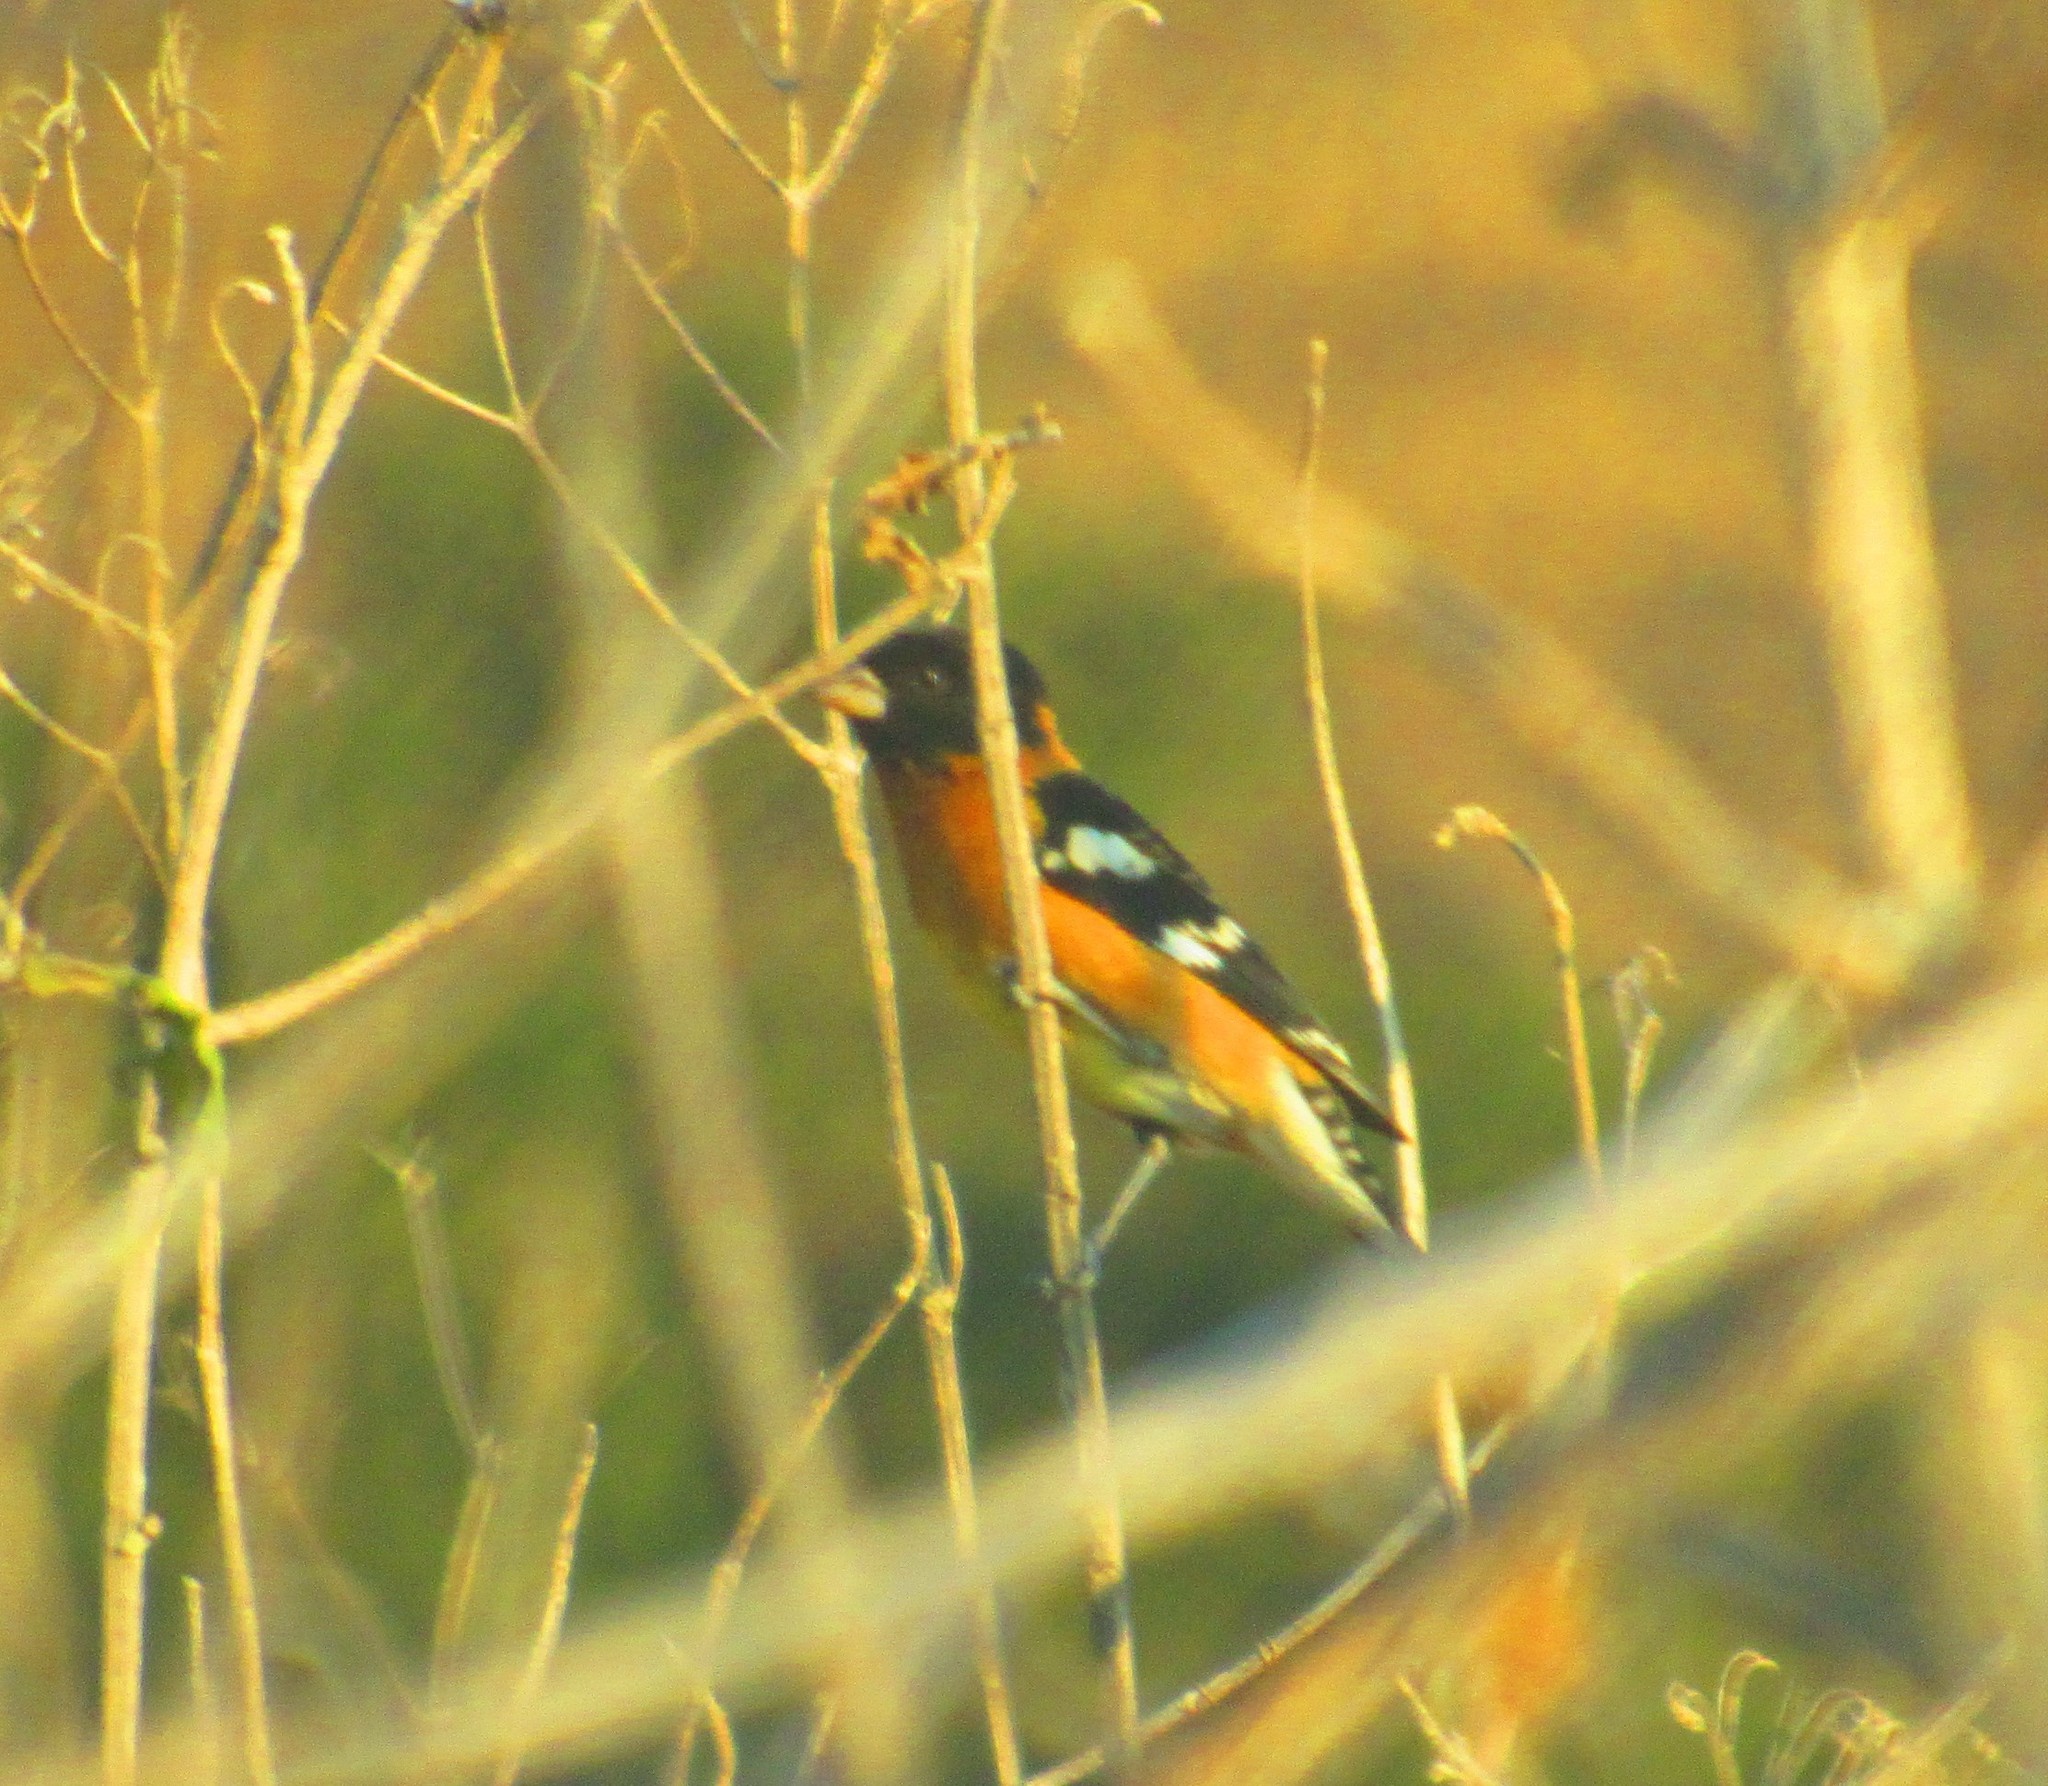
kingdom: Animalia
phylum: Chordata
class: Aves
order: Passeriformes
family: Cardinalidae
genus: Pheucticus
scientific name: Pheucticus melanocephalus
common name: Black-headed grosbeak
